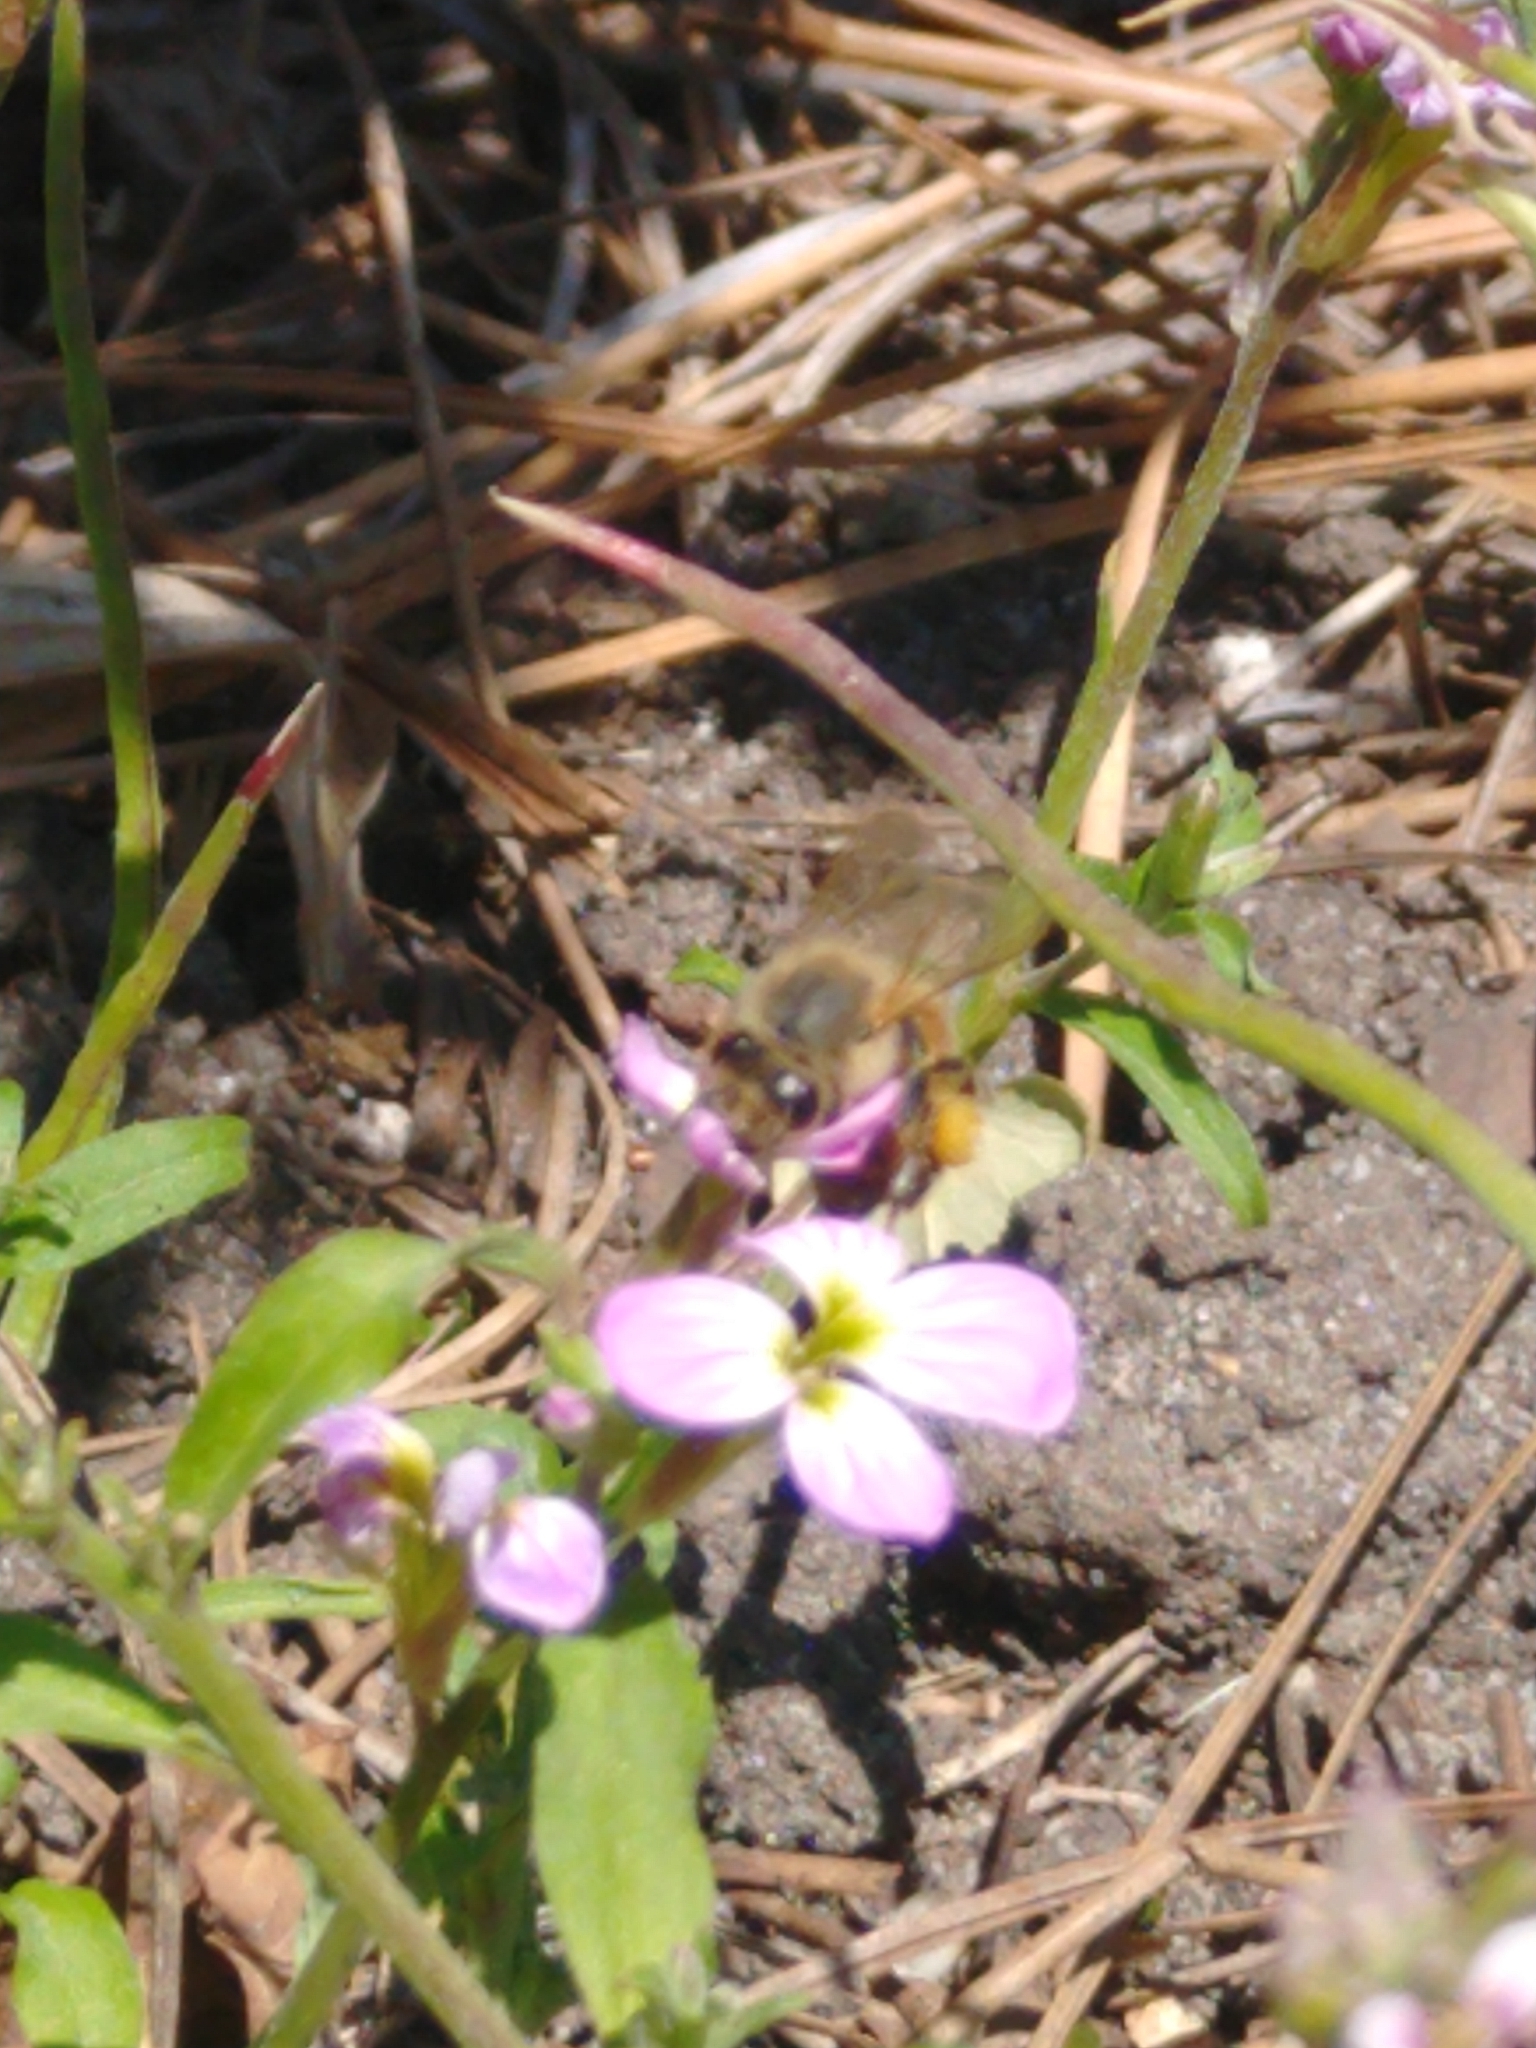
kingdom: Animalia
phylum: Arthropoda
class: Insecta
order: Hymenoptera
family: Apidae
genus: Apis
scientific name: Apis mellifera
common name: Honey bee
